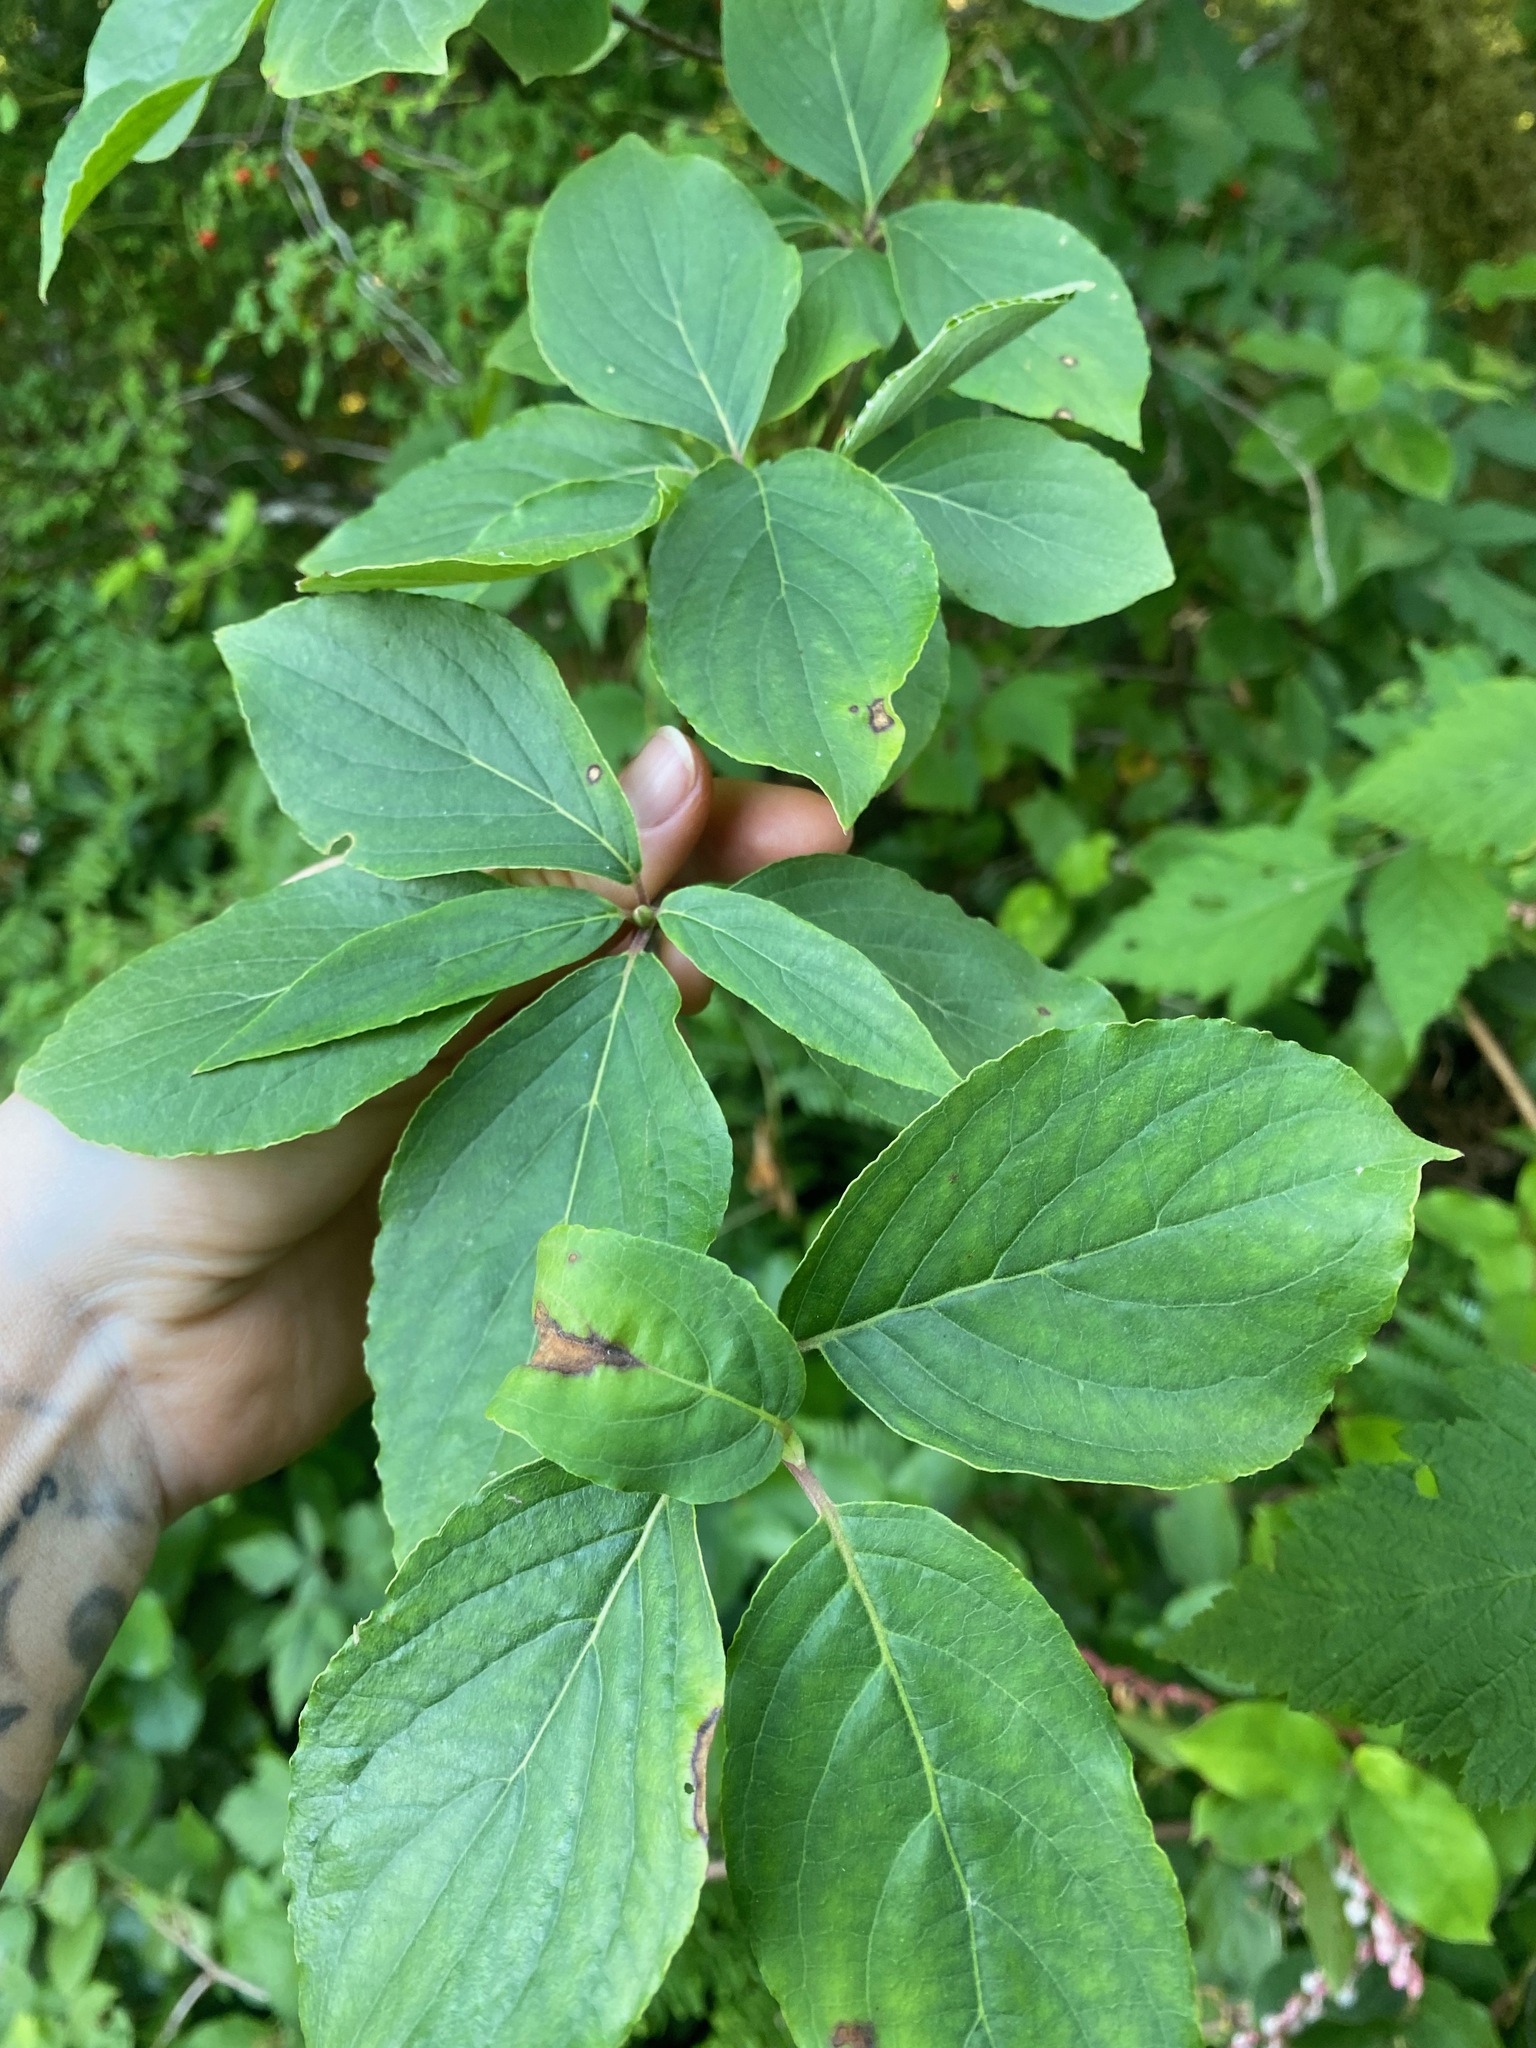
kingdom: Plantae
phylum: Tracheophyta
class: Magnoliopsida
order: Cornales
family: Cornaceae
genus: Cornus
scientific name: Cornus nuttallii
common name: Pacific dogwood
